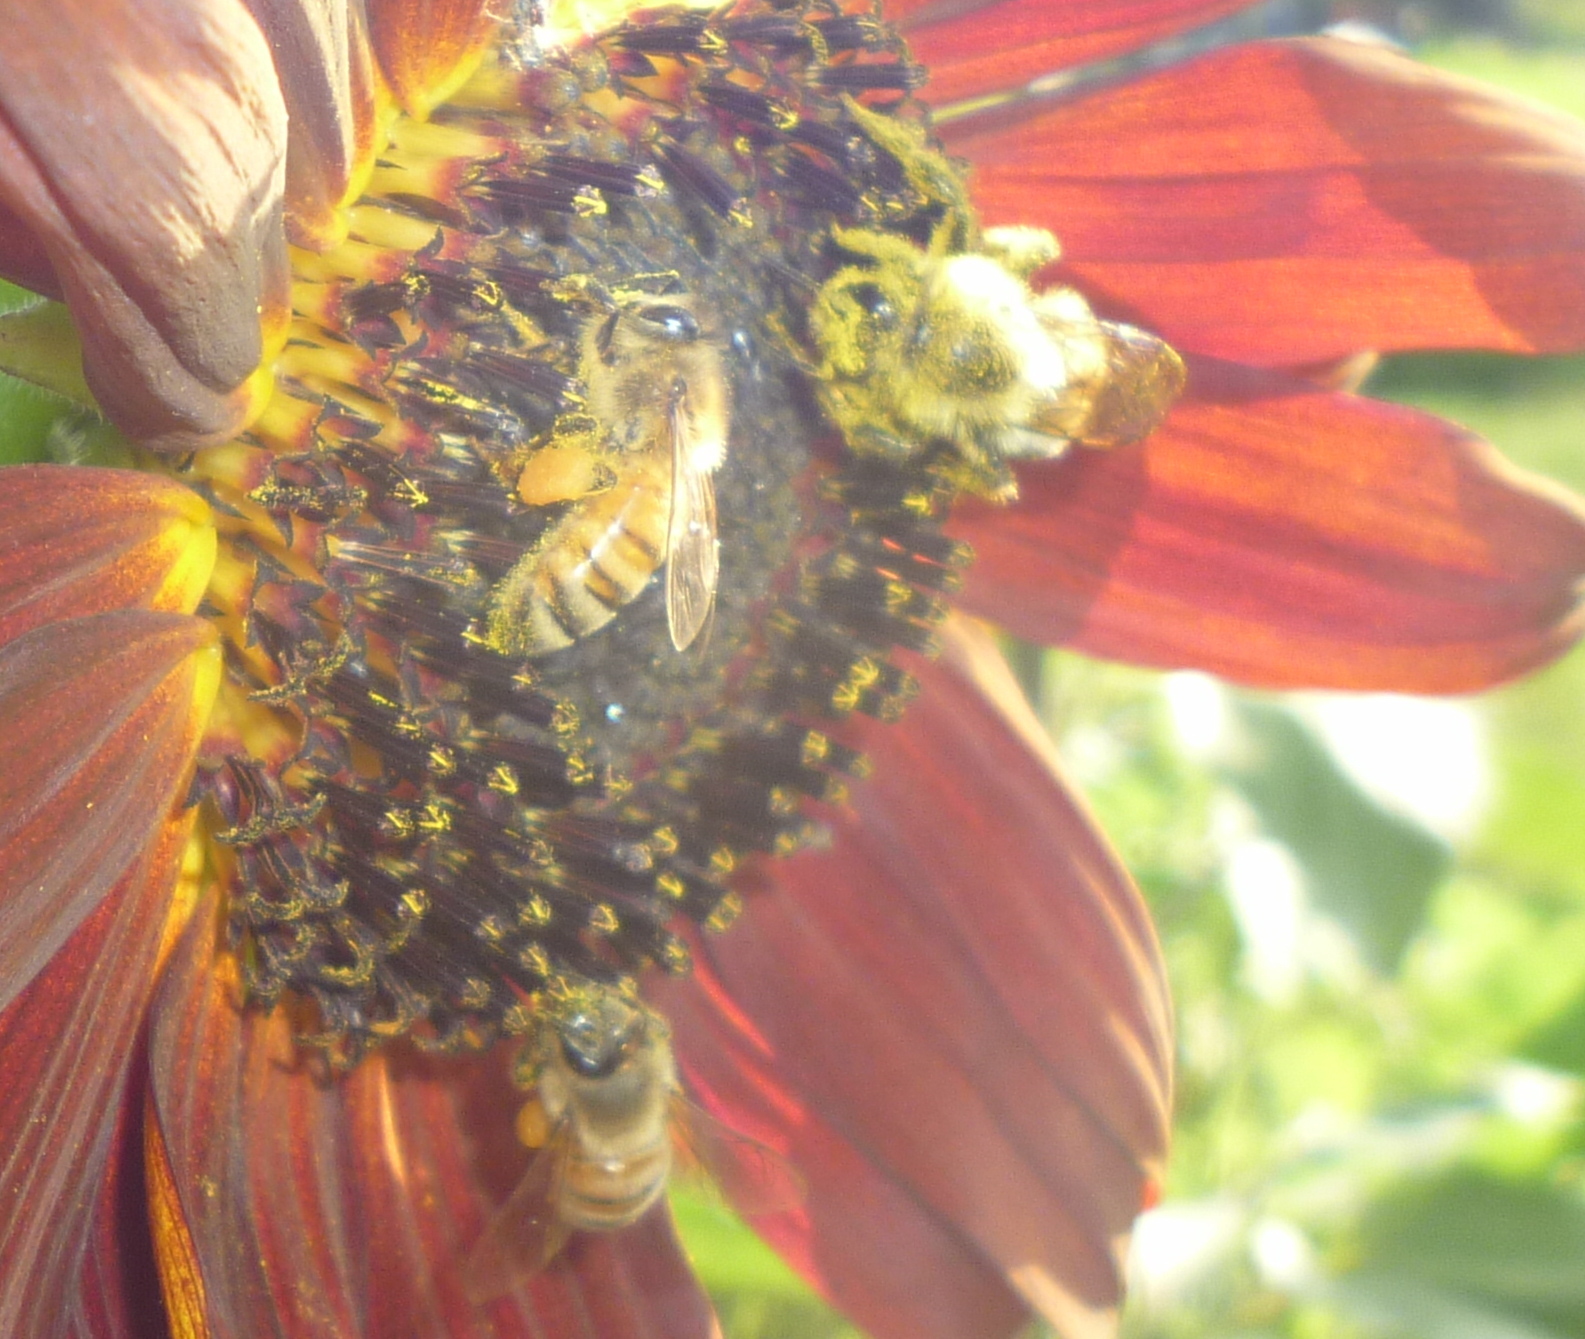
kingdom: Animalia
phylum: Arthropoda
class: Insecta
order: Hymenoptera
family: Apidae
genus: Apis
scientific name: Apis mellifera
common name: Honey bee
